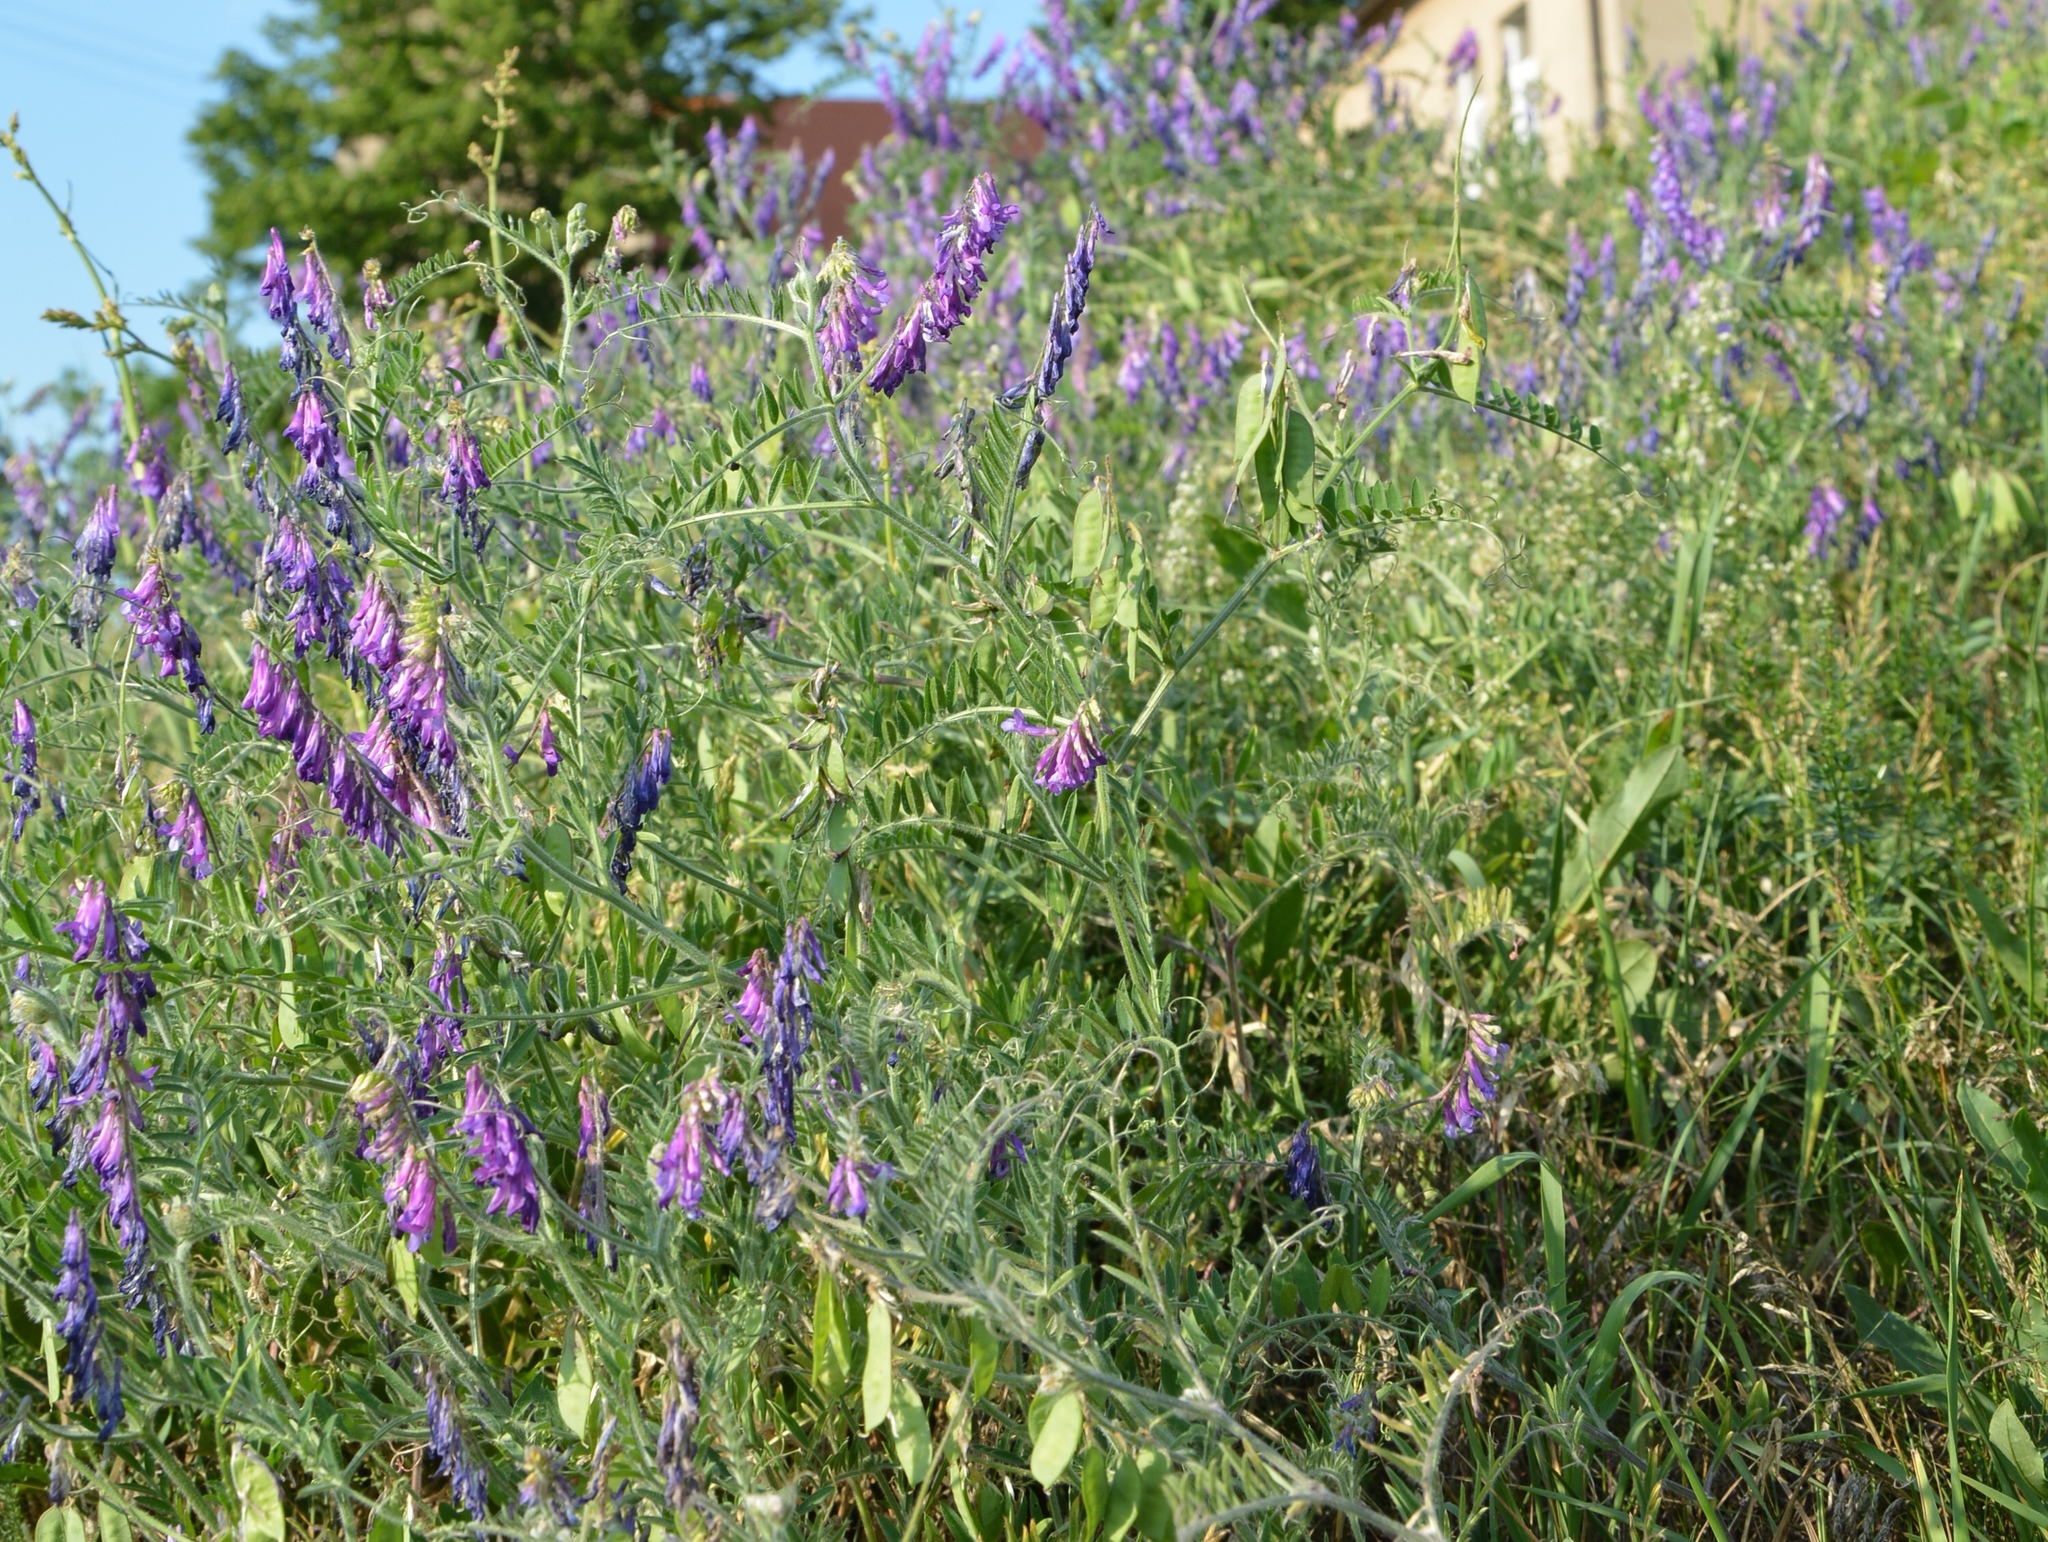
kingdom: Plantae
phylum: Tracheophyta
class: Magnoliopsida
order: Fabales
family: Fabaceae
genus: Vicia
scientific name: Vicia villosa
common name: Fodder vetch
